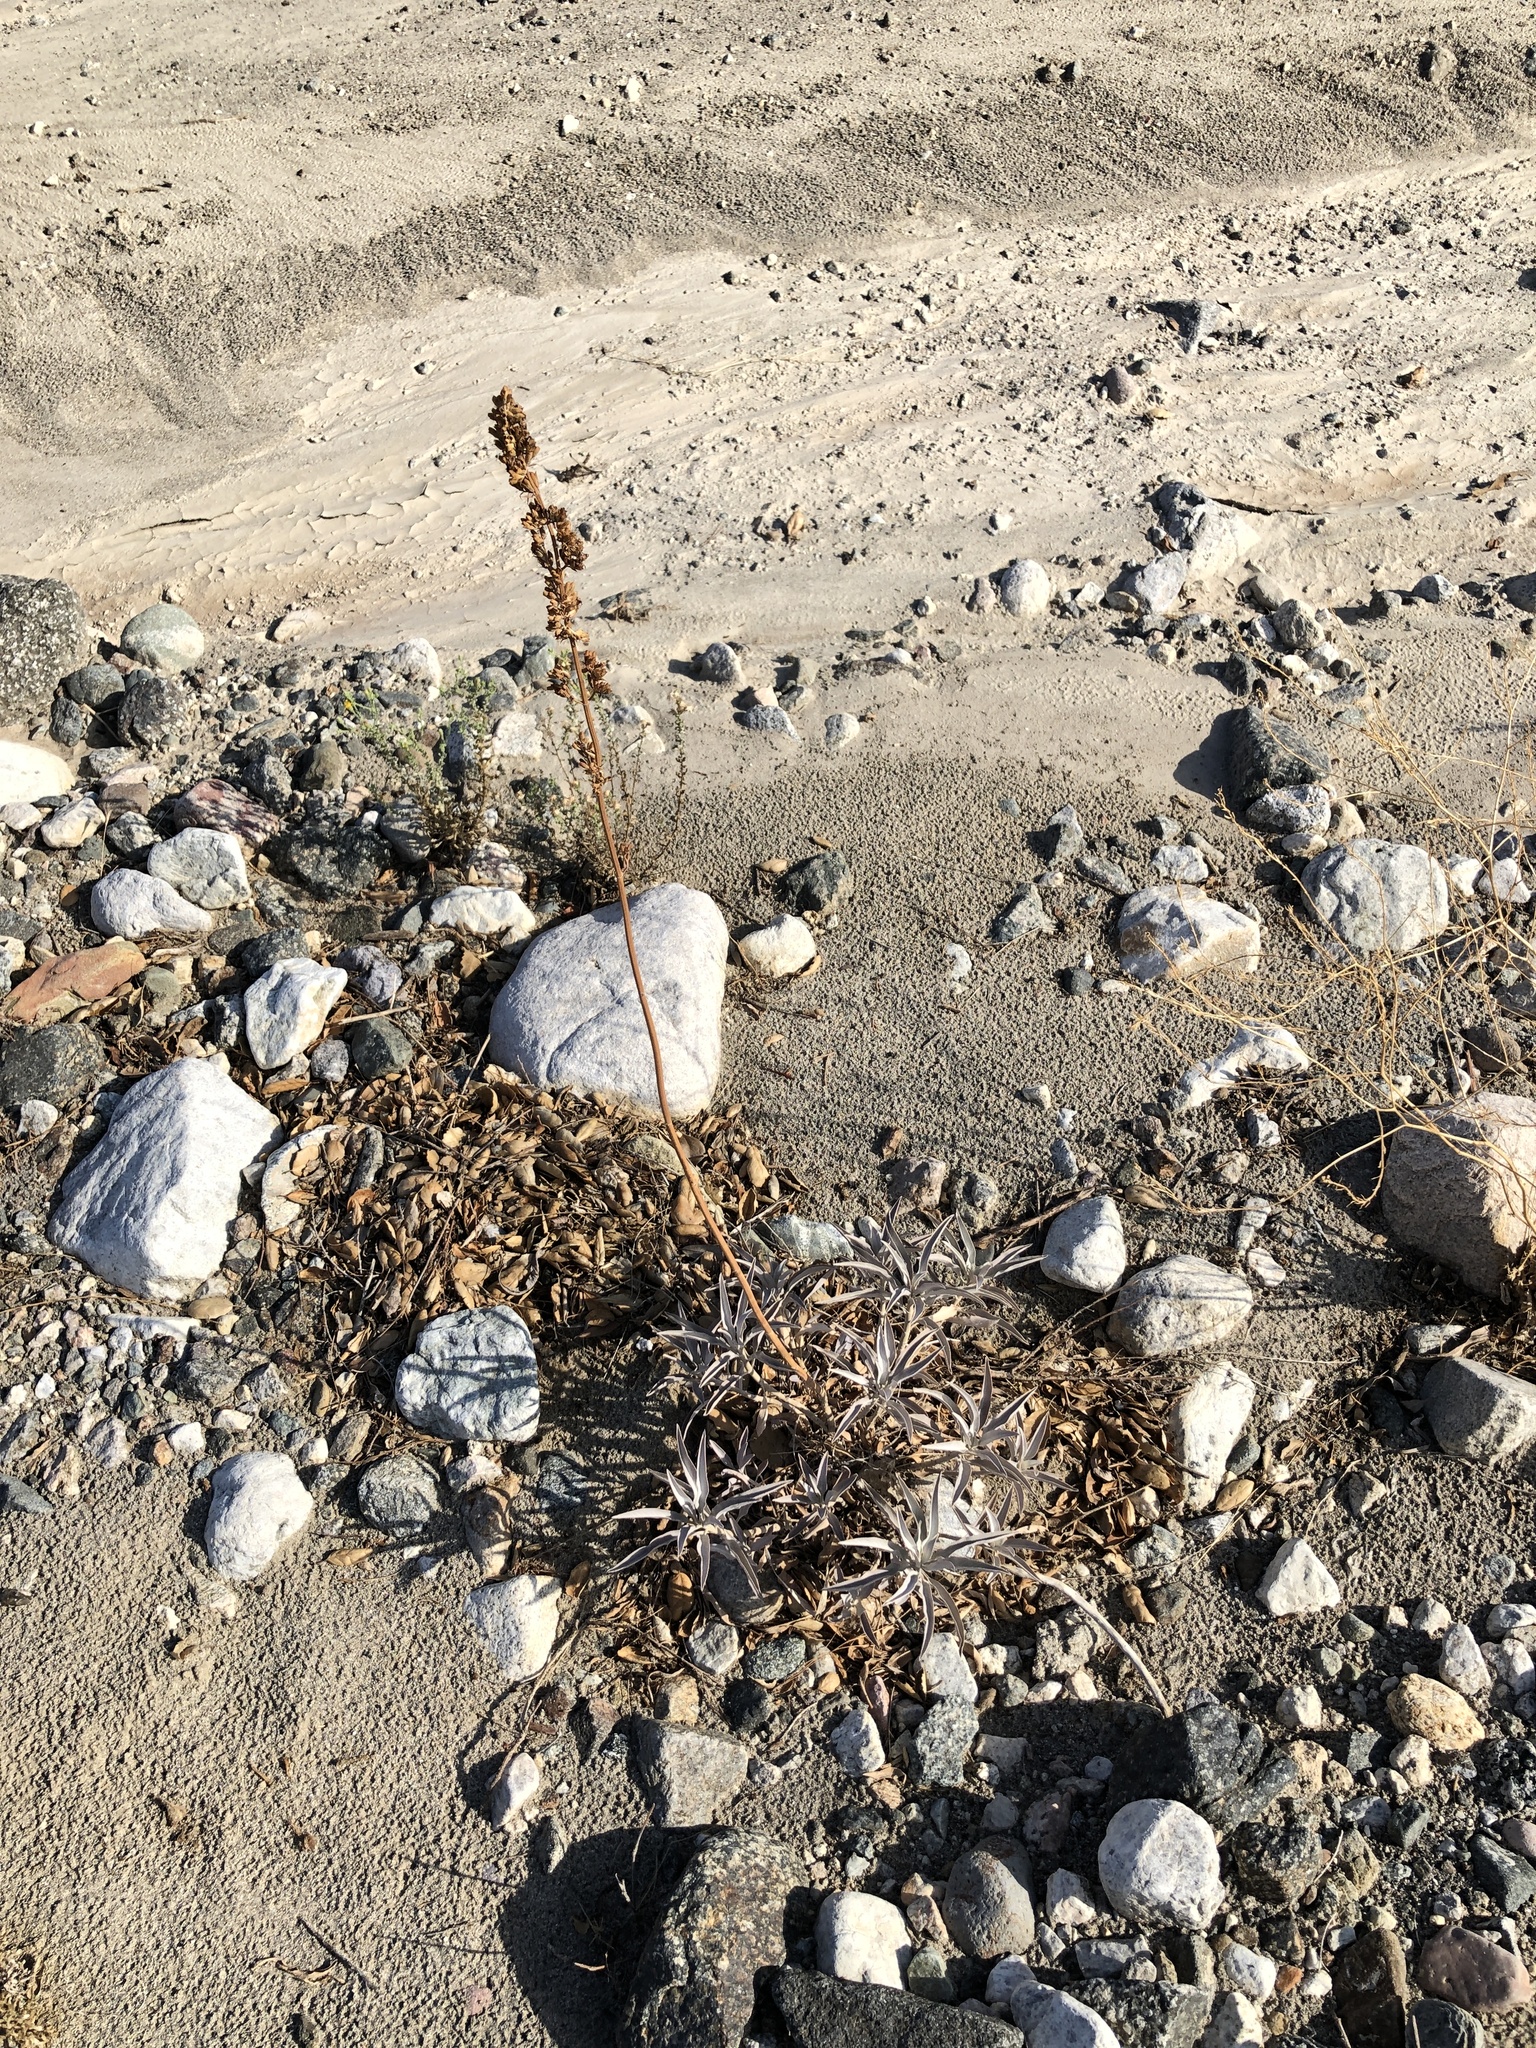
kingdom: Plantae
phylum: Tracheophyta
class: Magnoliopsida
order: Lamiales
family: Lamiaceae
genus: Salvia
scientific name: Salvia apiana
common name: White sage
